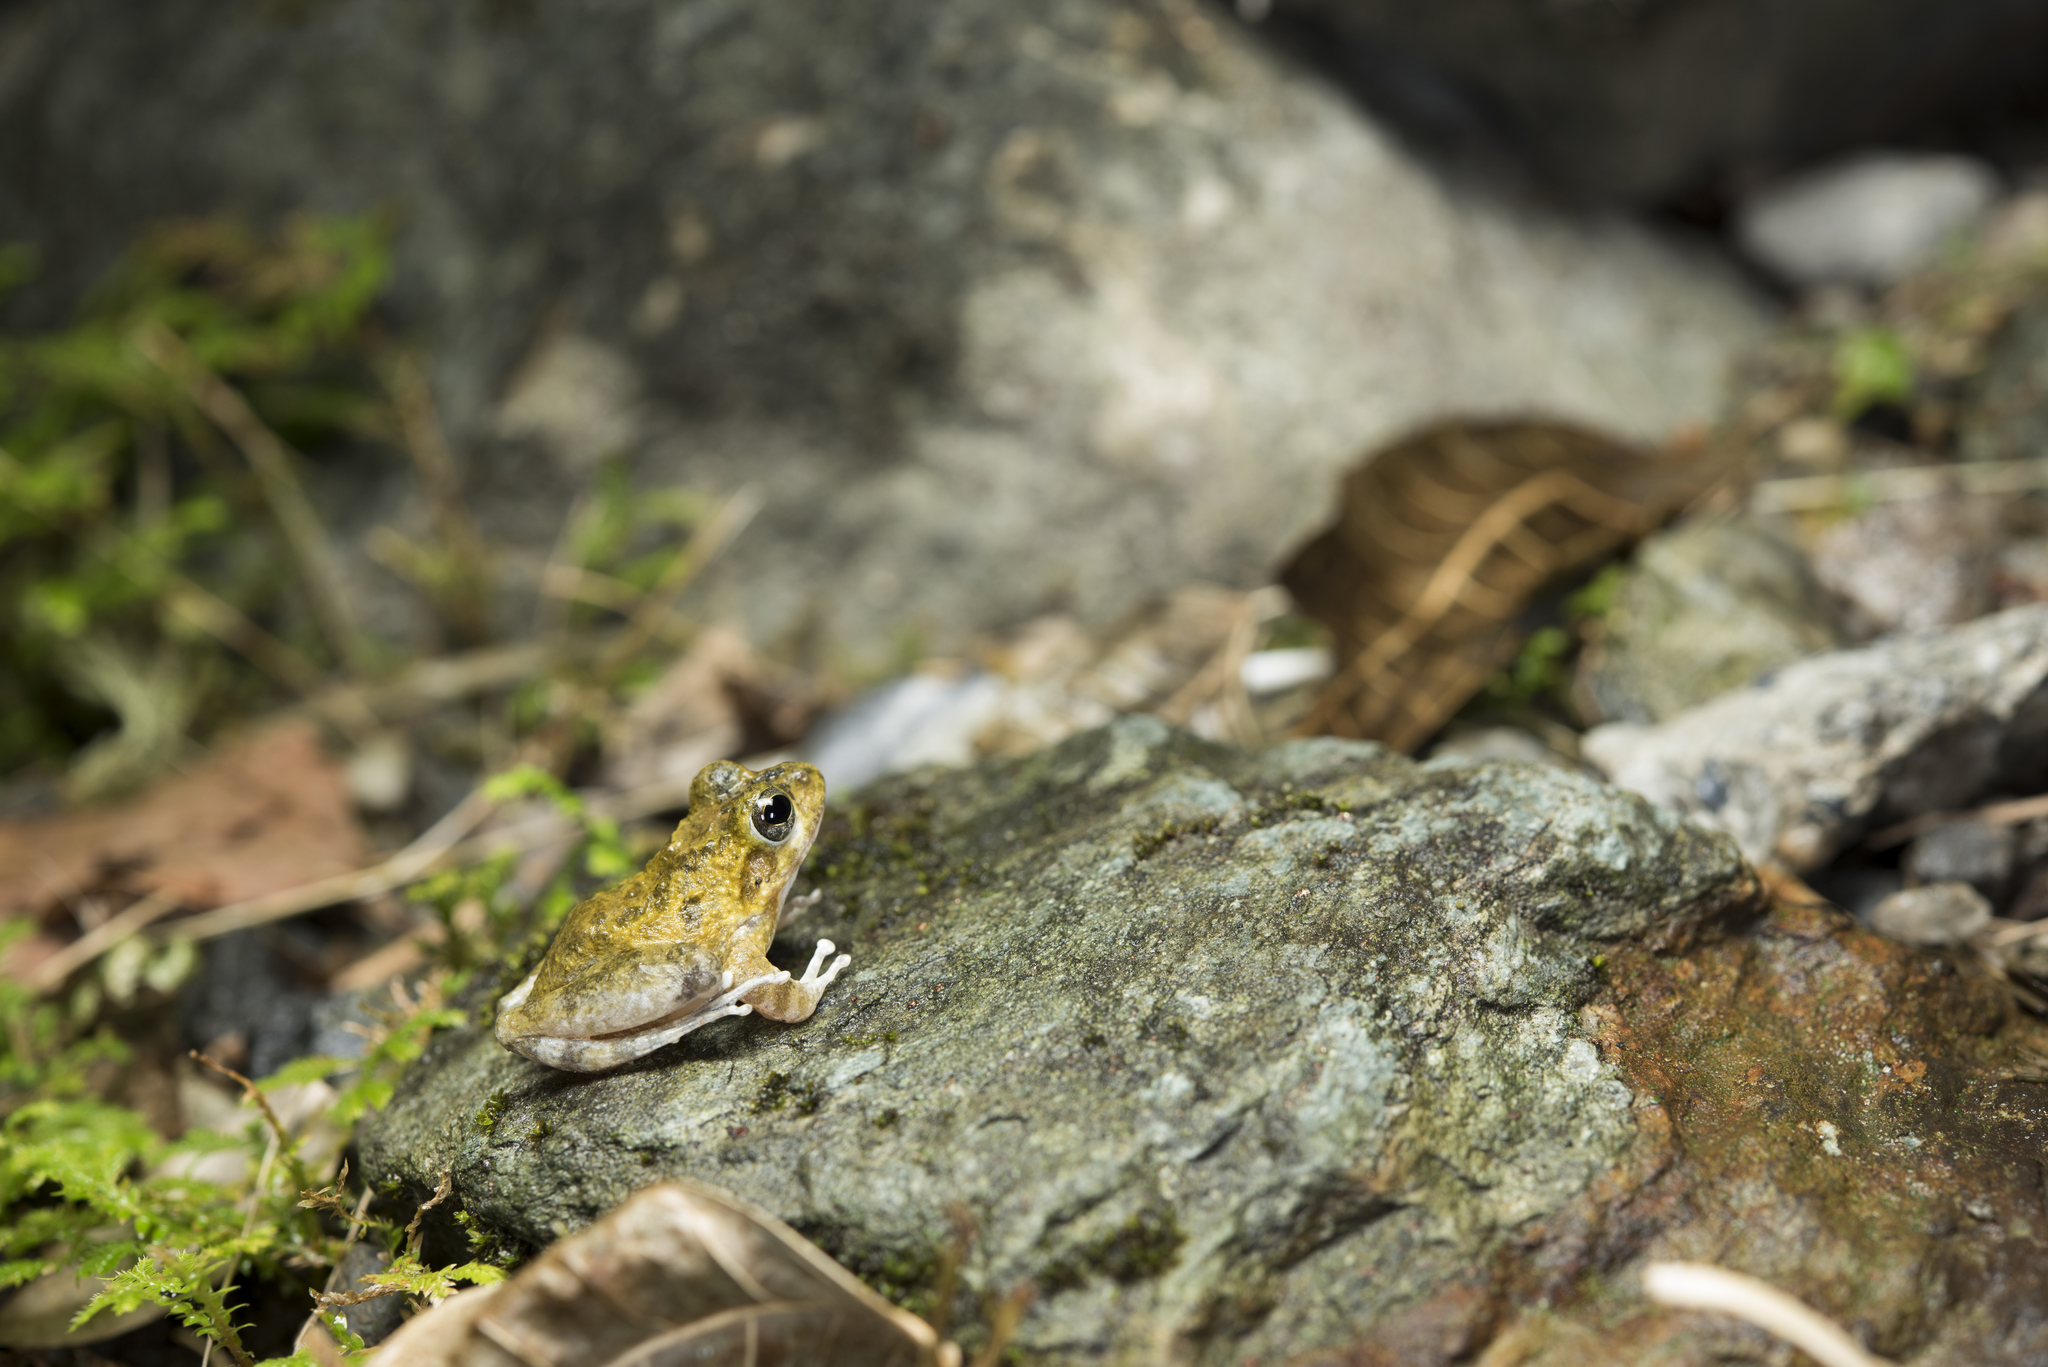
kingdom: Animalia
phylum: Chordata
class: Amphibia
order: Anura
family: Rhacophoridae
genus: Buergeria
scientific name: Buergeria otai
